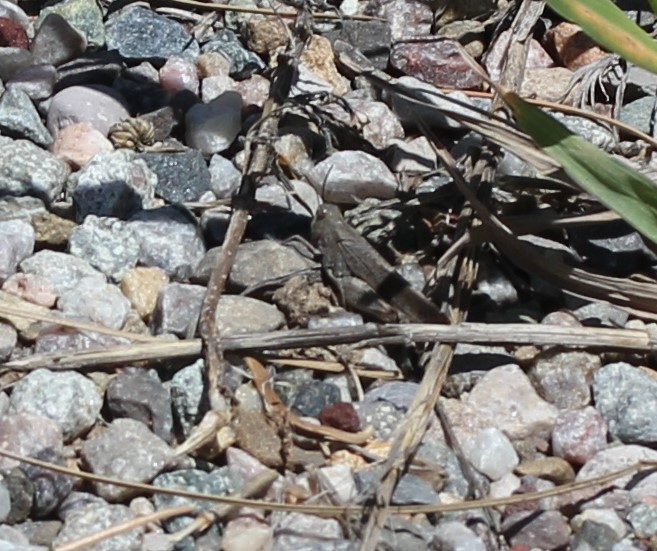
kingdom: Animalia
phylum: Arthropoda
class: Insecta
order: Orthoptera
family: Acrididae
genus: Arphia
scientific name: Arphia conspersa
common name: Speckle-winged rangeland grasshopper
